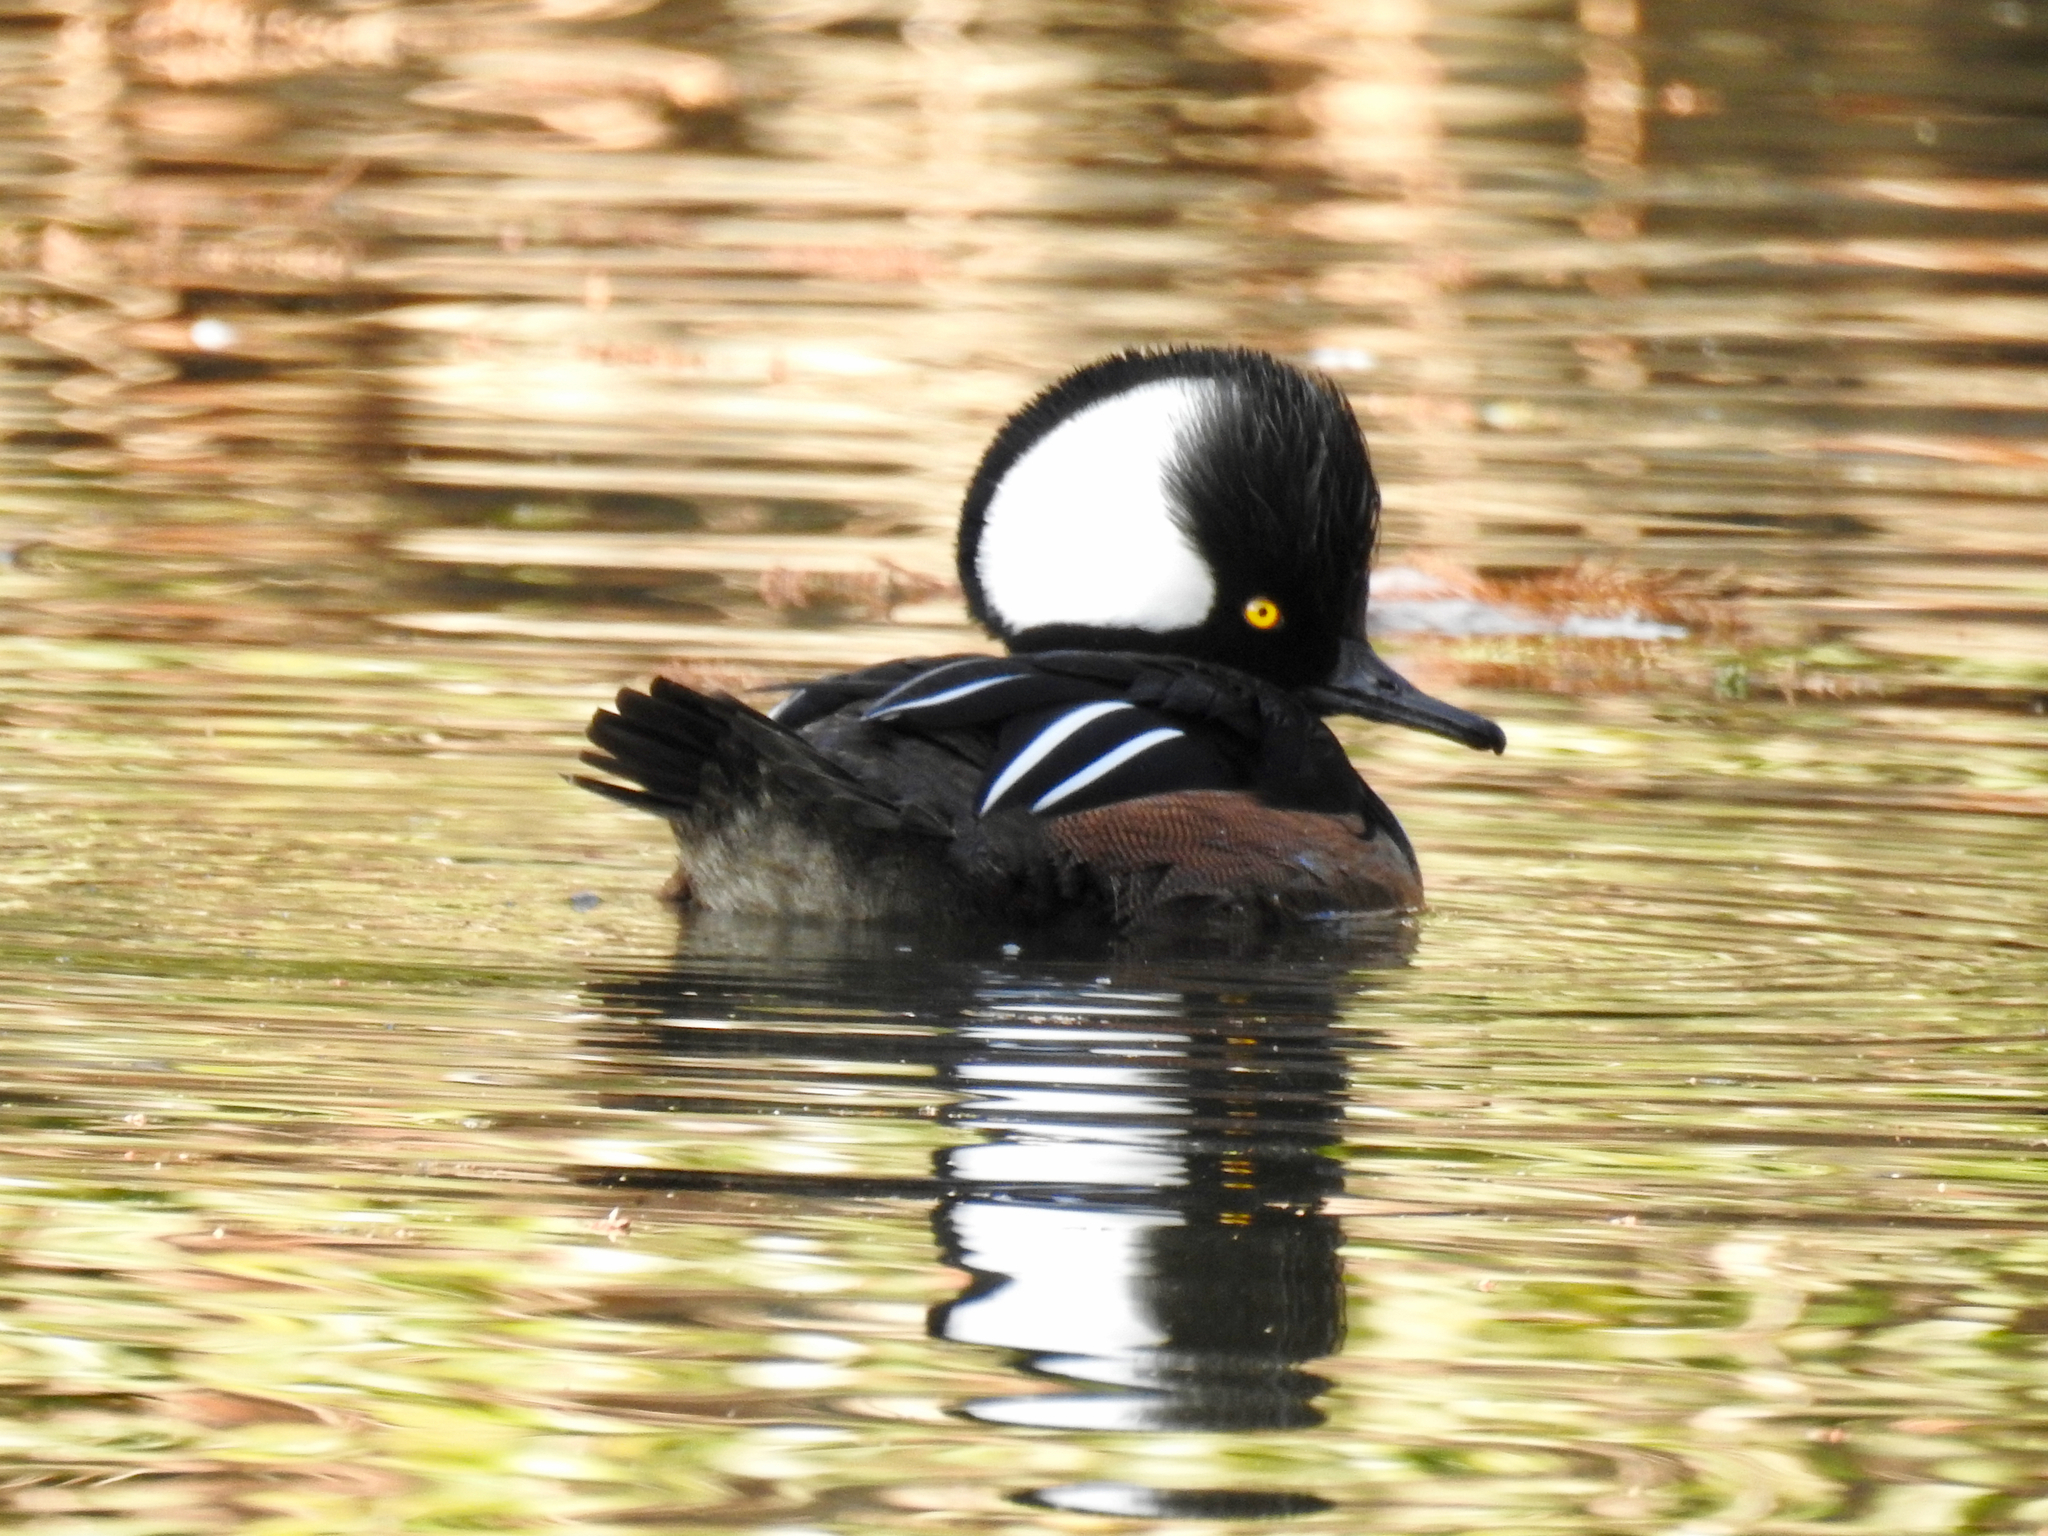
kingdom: Animalia
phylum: Chordata
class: Aves
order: Anseriformes
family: Anatidae
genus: Lophodytes
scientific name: Lophodytes cucullatus
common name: Hooded merganser
